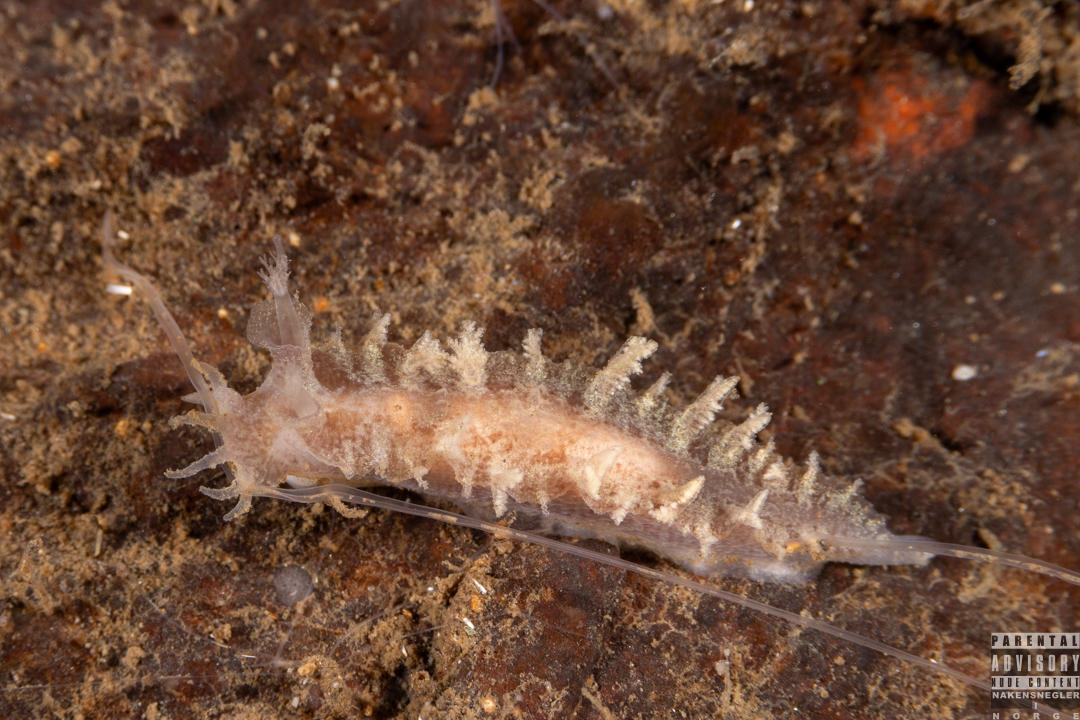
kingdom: Animalia
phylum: Mollusca
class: Gastropoda
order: Nudibranchia
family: Tritoniidae
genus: Duvaucelia
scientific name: Duvaucelia plebeia
